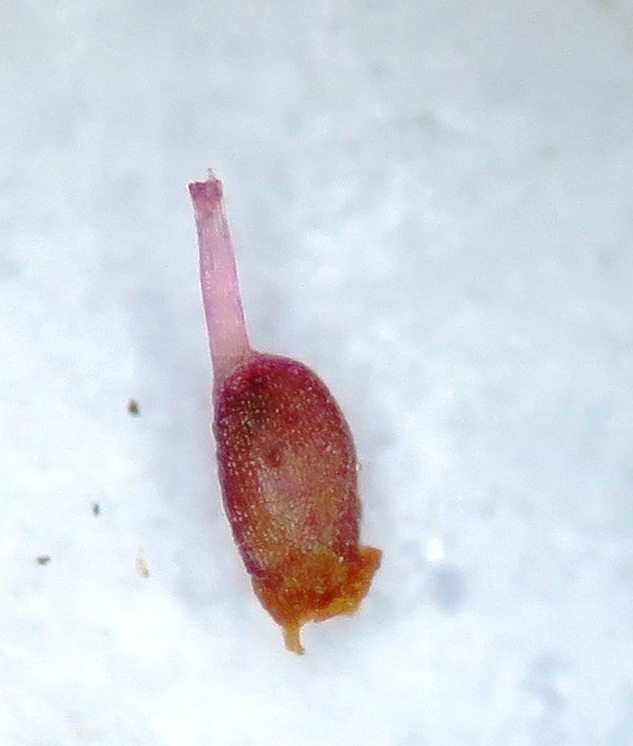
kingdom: Plantae
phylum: Tracheophyta
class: Magnoliopsida
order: Ericales
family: Ericaceae
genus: Erica
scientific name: Erica similis
